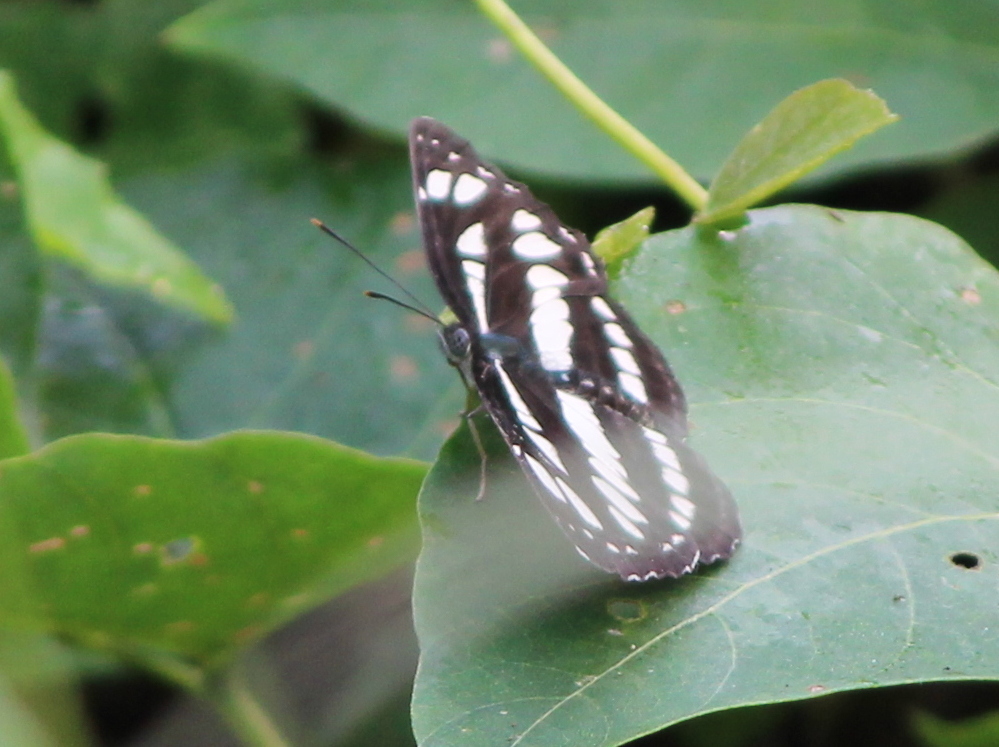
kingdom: Animalia
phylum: Arthropoda
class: Insecta
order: Lepidoptera
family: Nymphalidae
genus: Neptis
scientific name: Neptis hylas
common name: Common sailer
